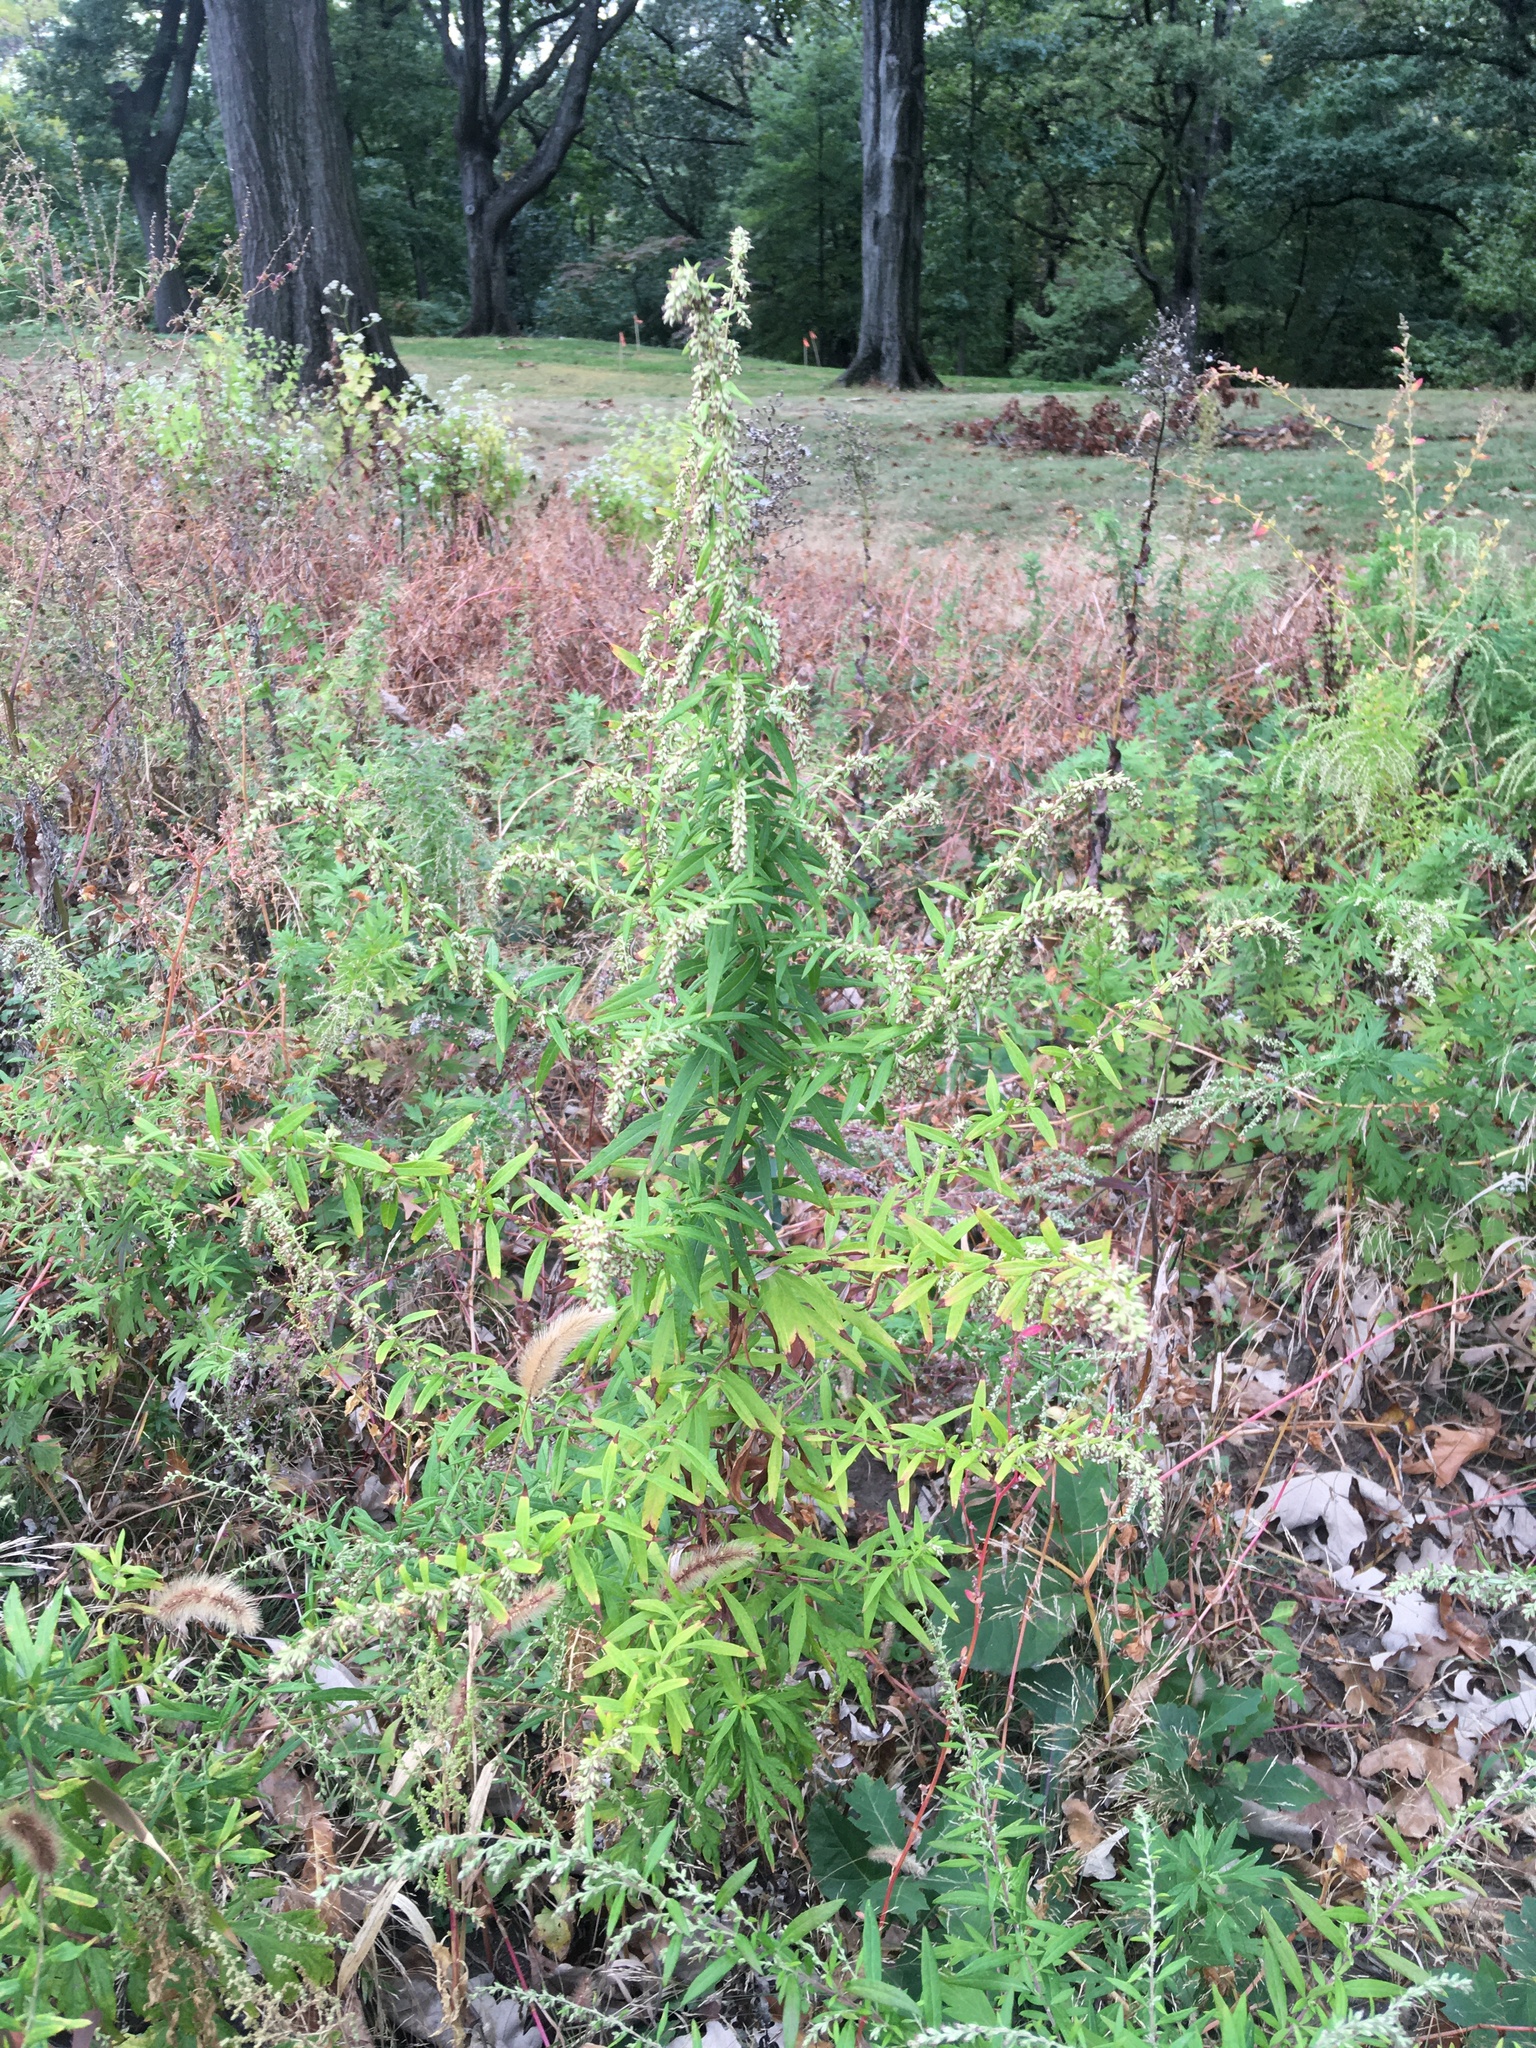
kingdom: Plantae
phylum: Tracheophyta
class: Magnoliopsida
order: Asterales
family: Asteraceae
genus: Artemisia
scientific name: Artemisia vulgaris
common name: Mugwort
